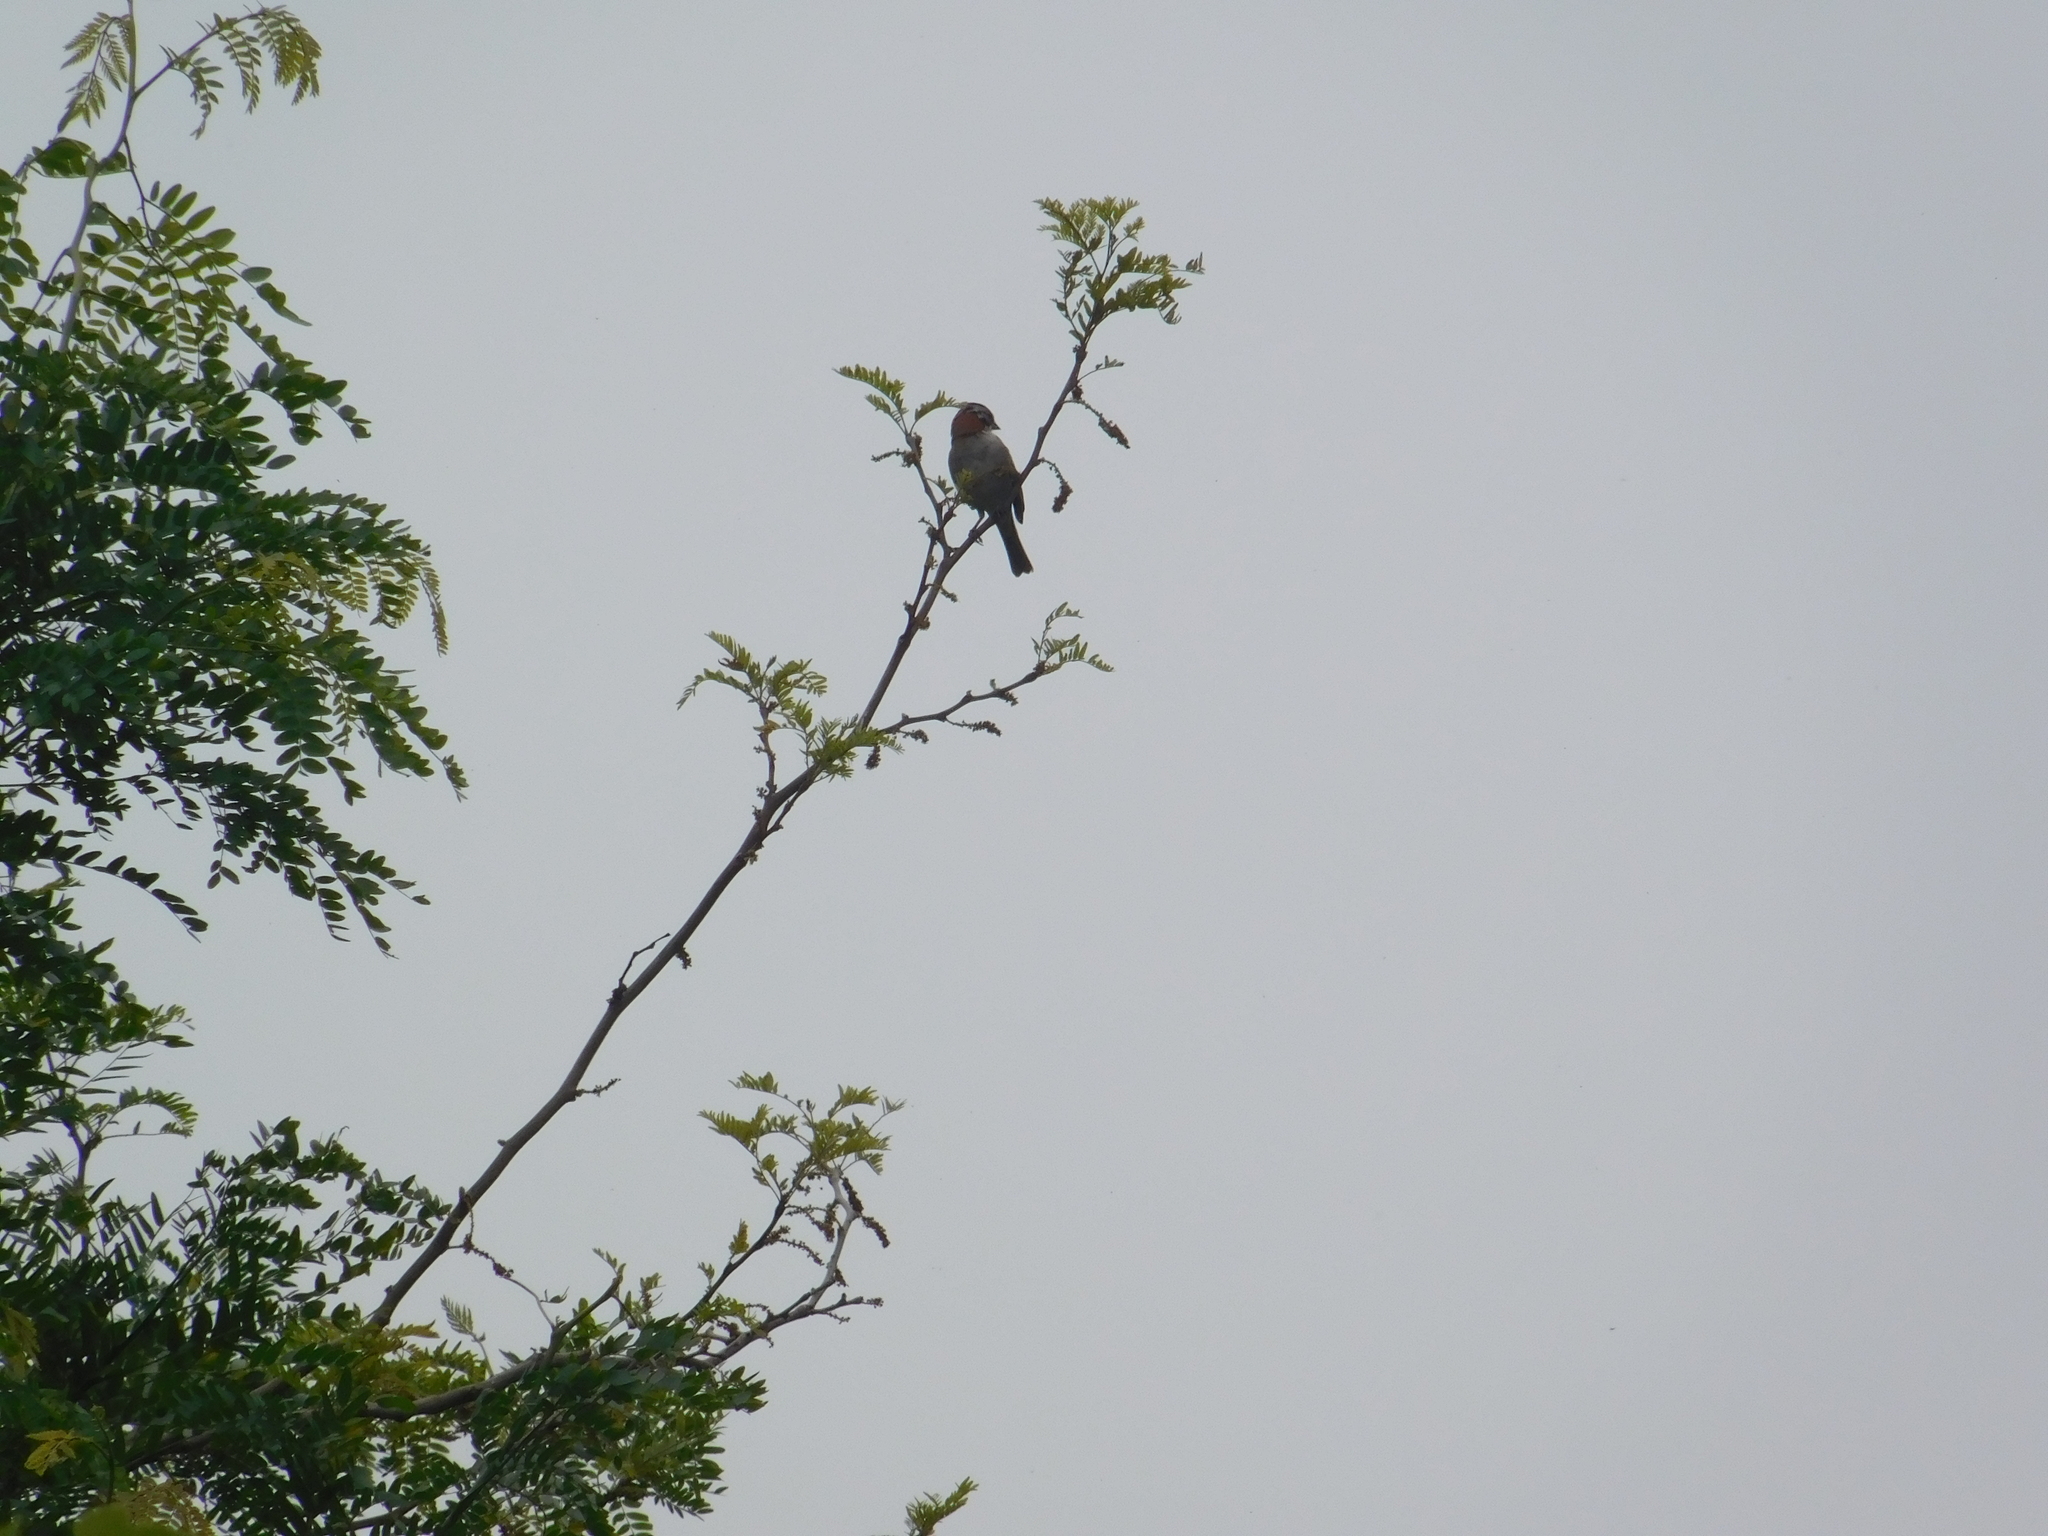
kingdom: Animalia
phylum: Chordata
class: Aves
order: Passeriformes
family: Passerellidae
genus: Zonotrichia
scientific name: Zonotrichia capensis
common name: Rufous-collared sparrow
